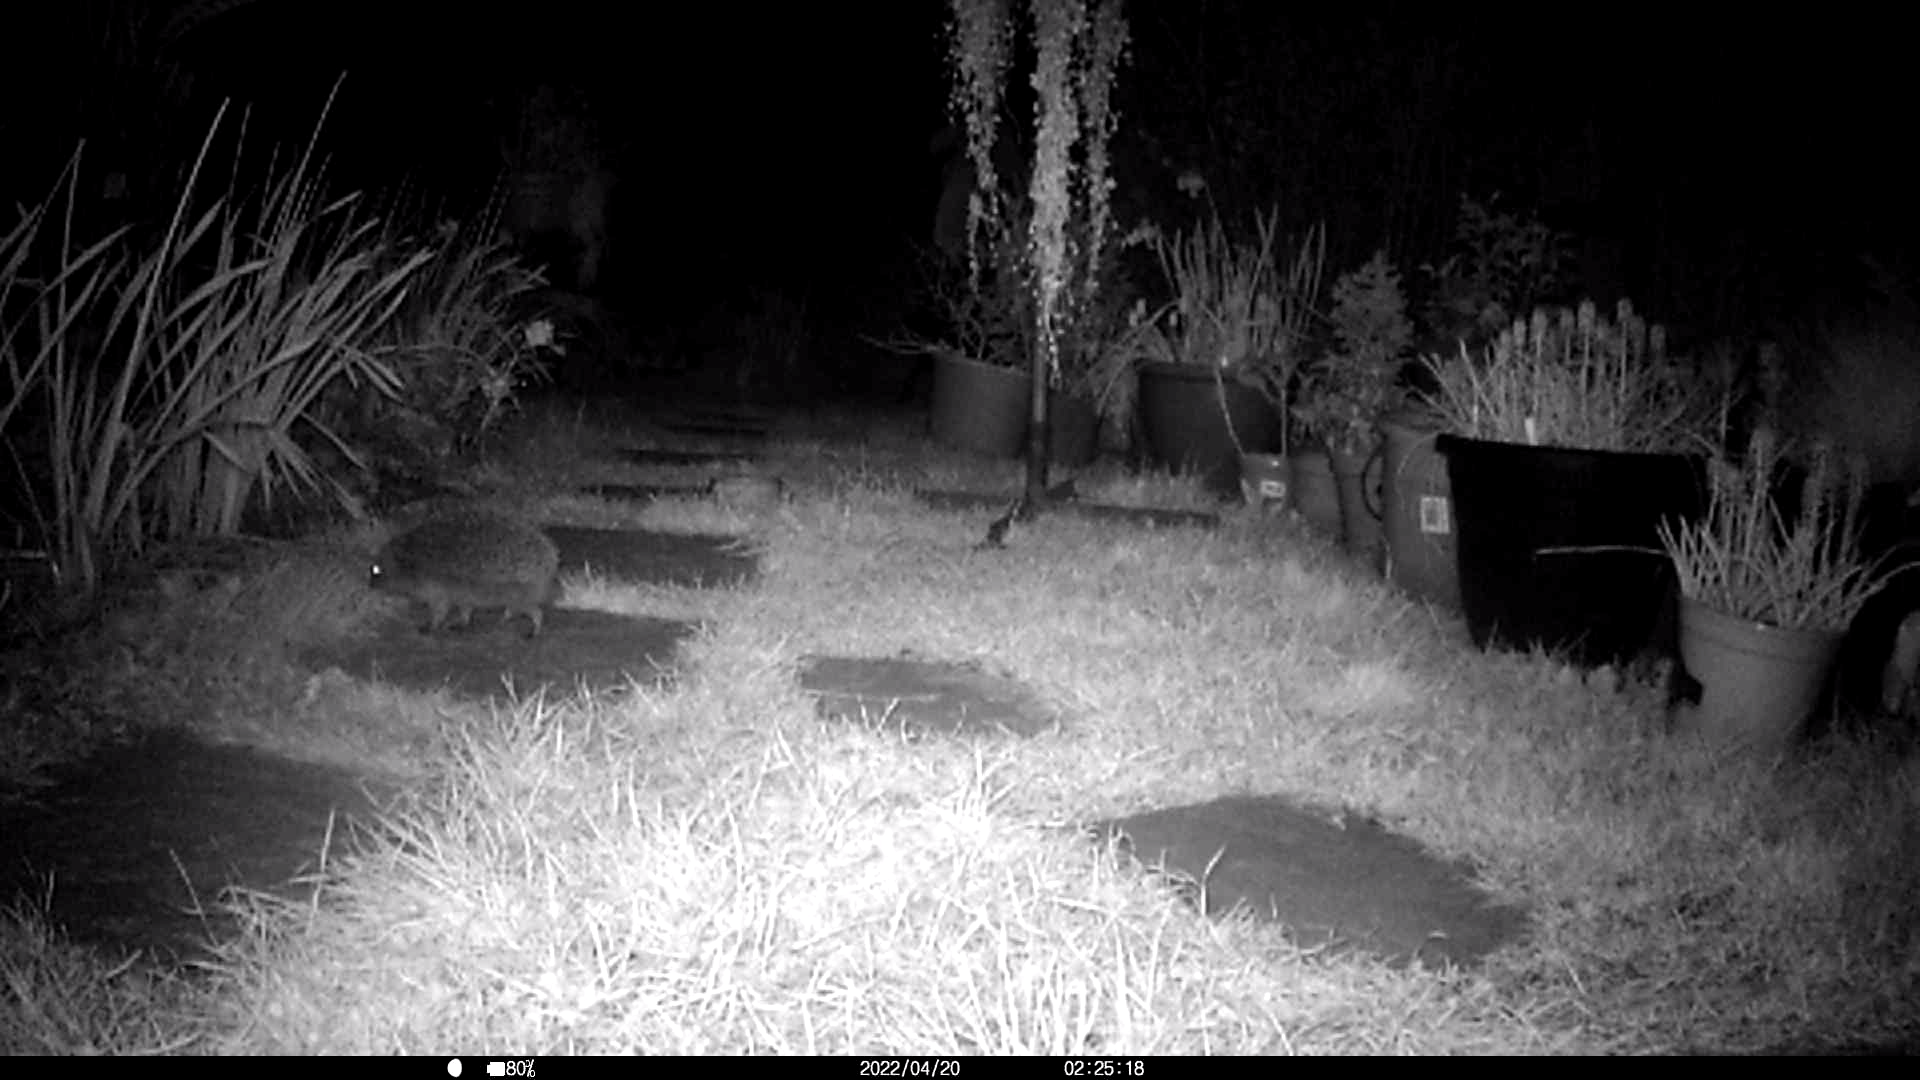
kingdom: Animalia
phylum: Chordata
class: Mammalia
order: Erinaceomorpha
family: Erinaceidae
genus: Erinaceus
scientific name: Erinaceus europaeus
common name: West european hedgehog
